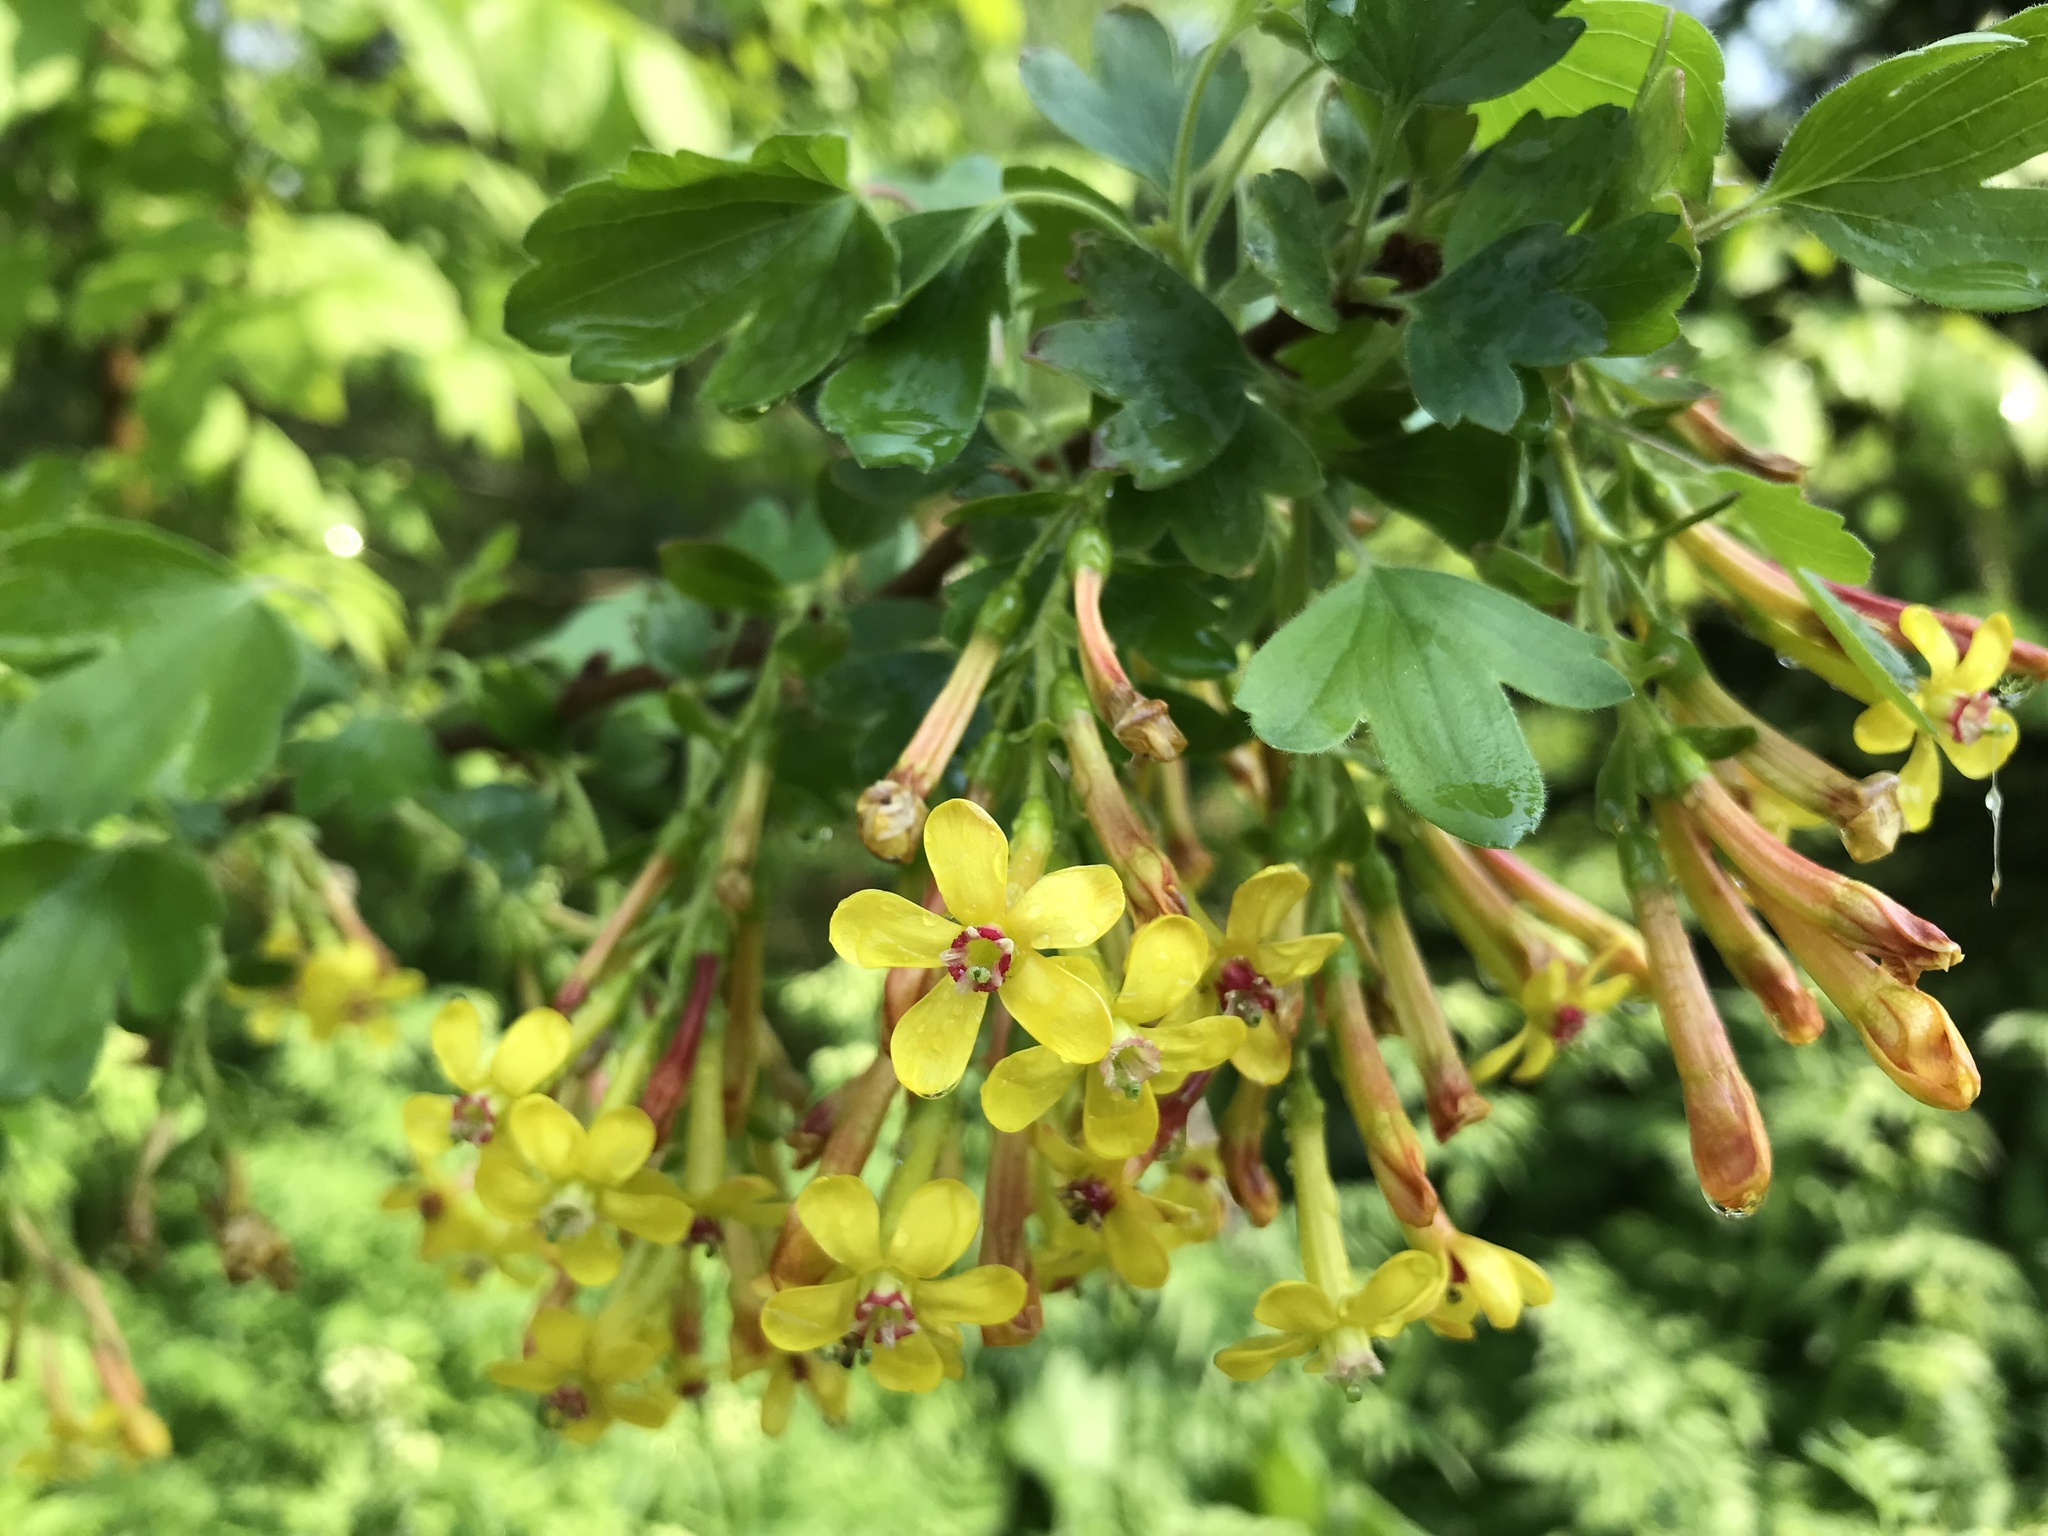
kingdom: Plantae
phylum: Tracheophyta
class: Magnoliopsida
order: Saxifragales
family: Grossulariaceae
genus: Ribes
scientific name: Ribes aureum
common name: Golden currant
